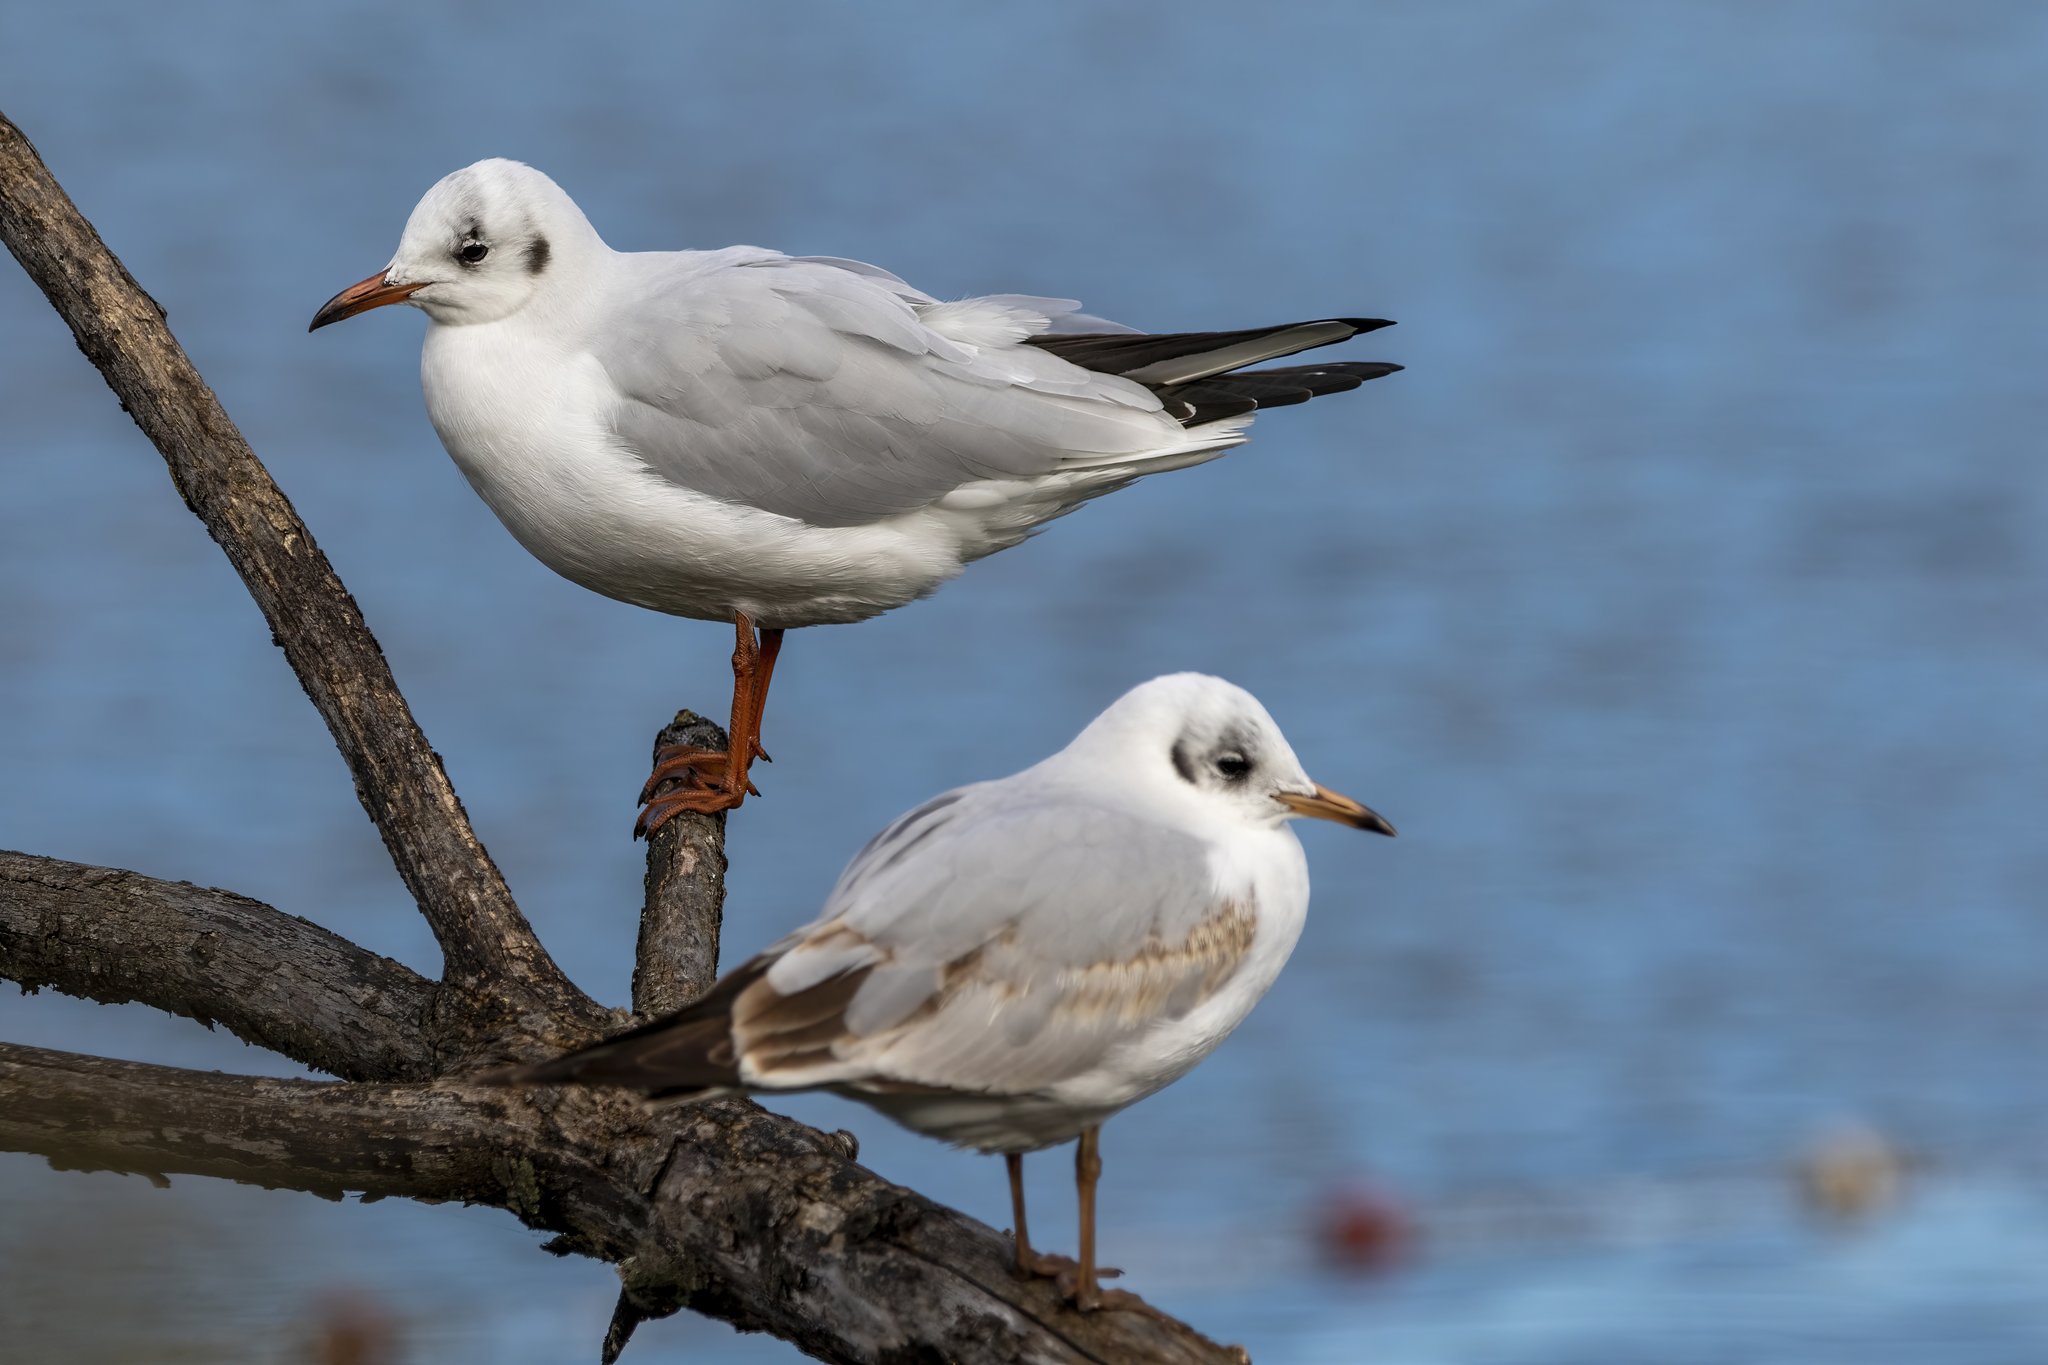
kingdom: Animalia
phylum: Chordata
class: Aves
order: Charadriiformes
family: Laridae
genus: Chroicocephalus
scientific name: Chroicocephalus ridibundus
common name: Black-headed gull
